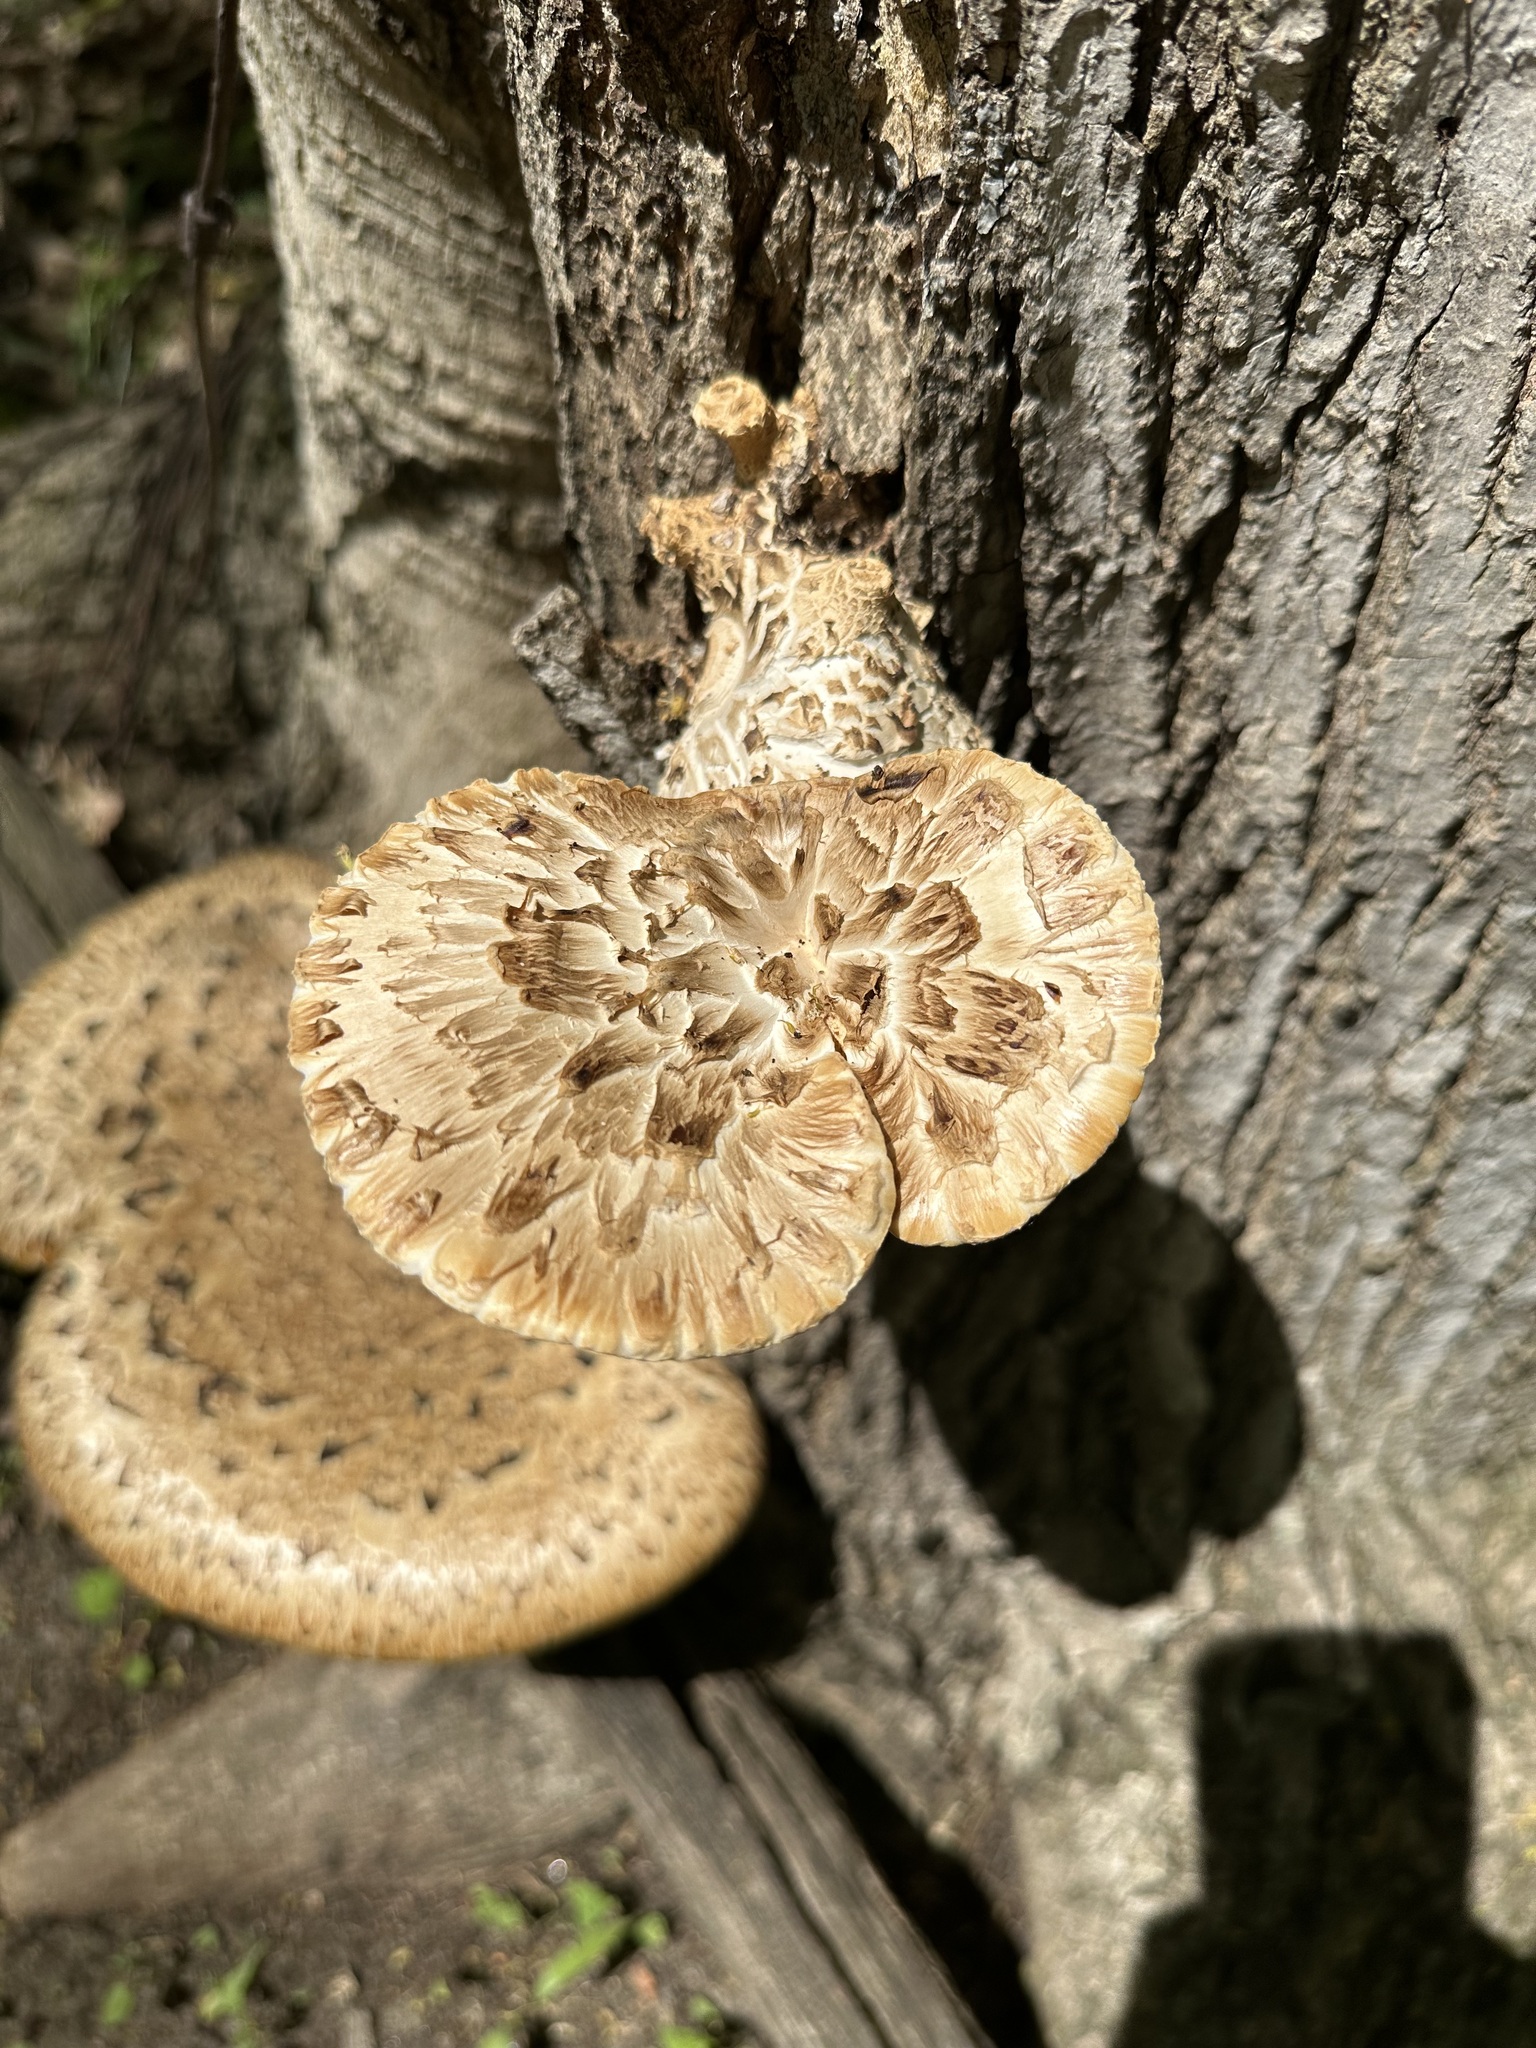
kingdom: Fungi
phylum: Basidiomycota
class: Agaricomycetes
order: Polyporales
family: Polyporaceae
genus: Cerioporus
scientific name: Cerioporus squamosus
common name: Dryad's saddle
